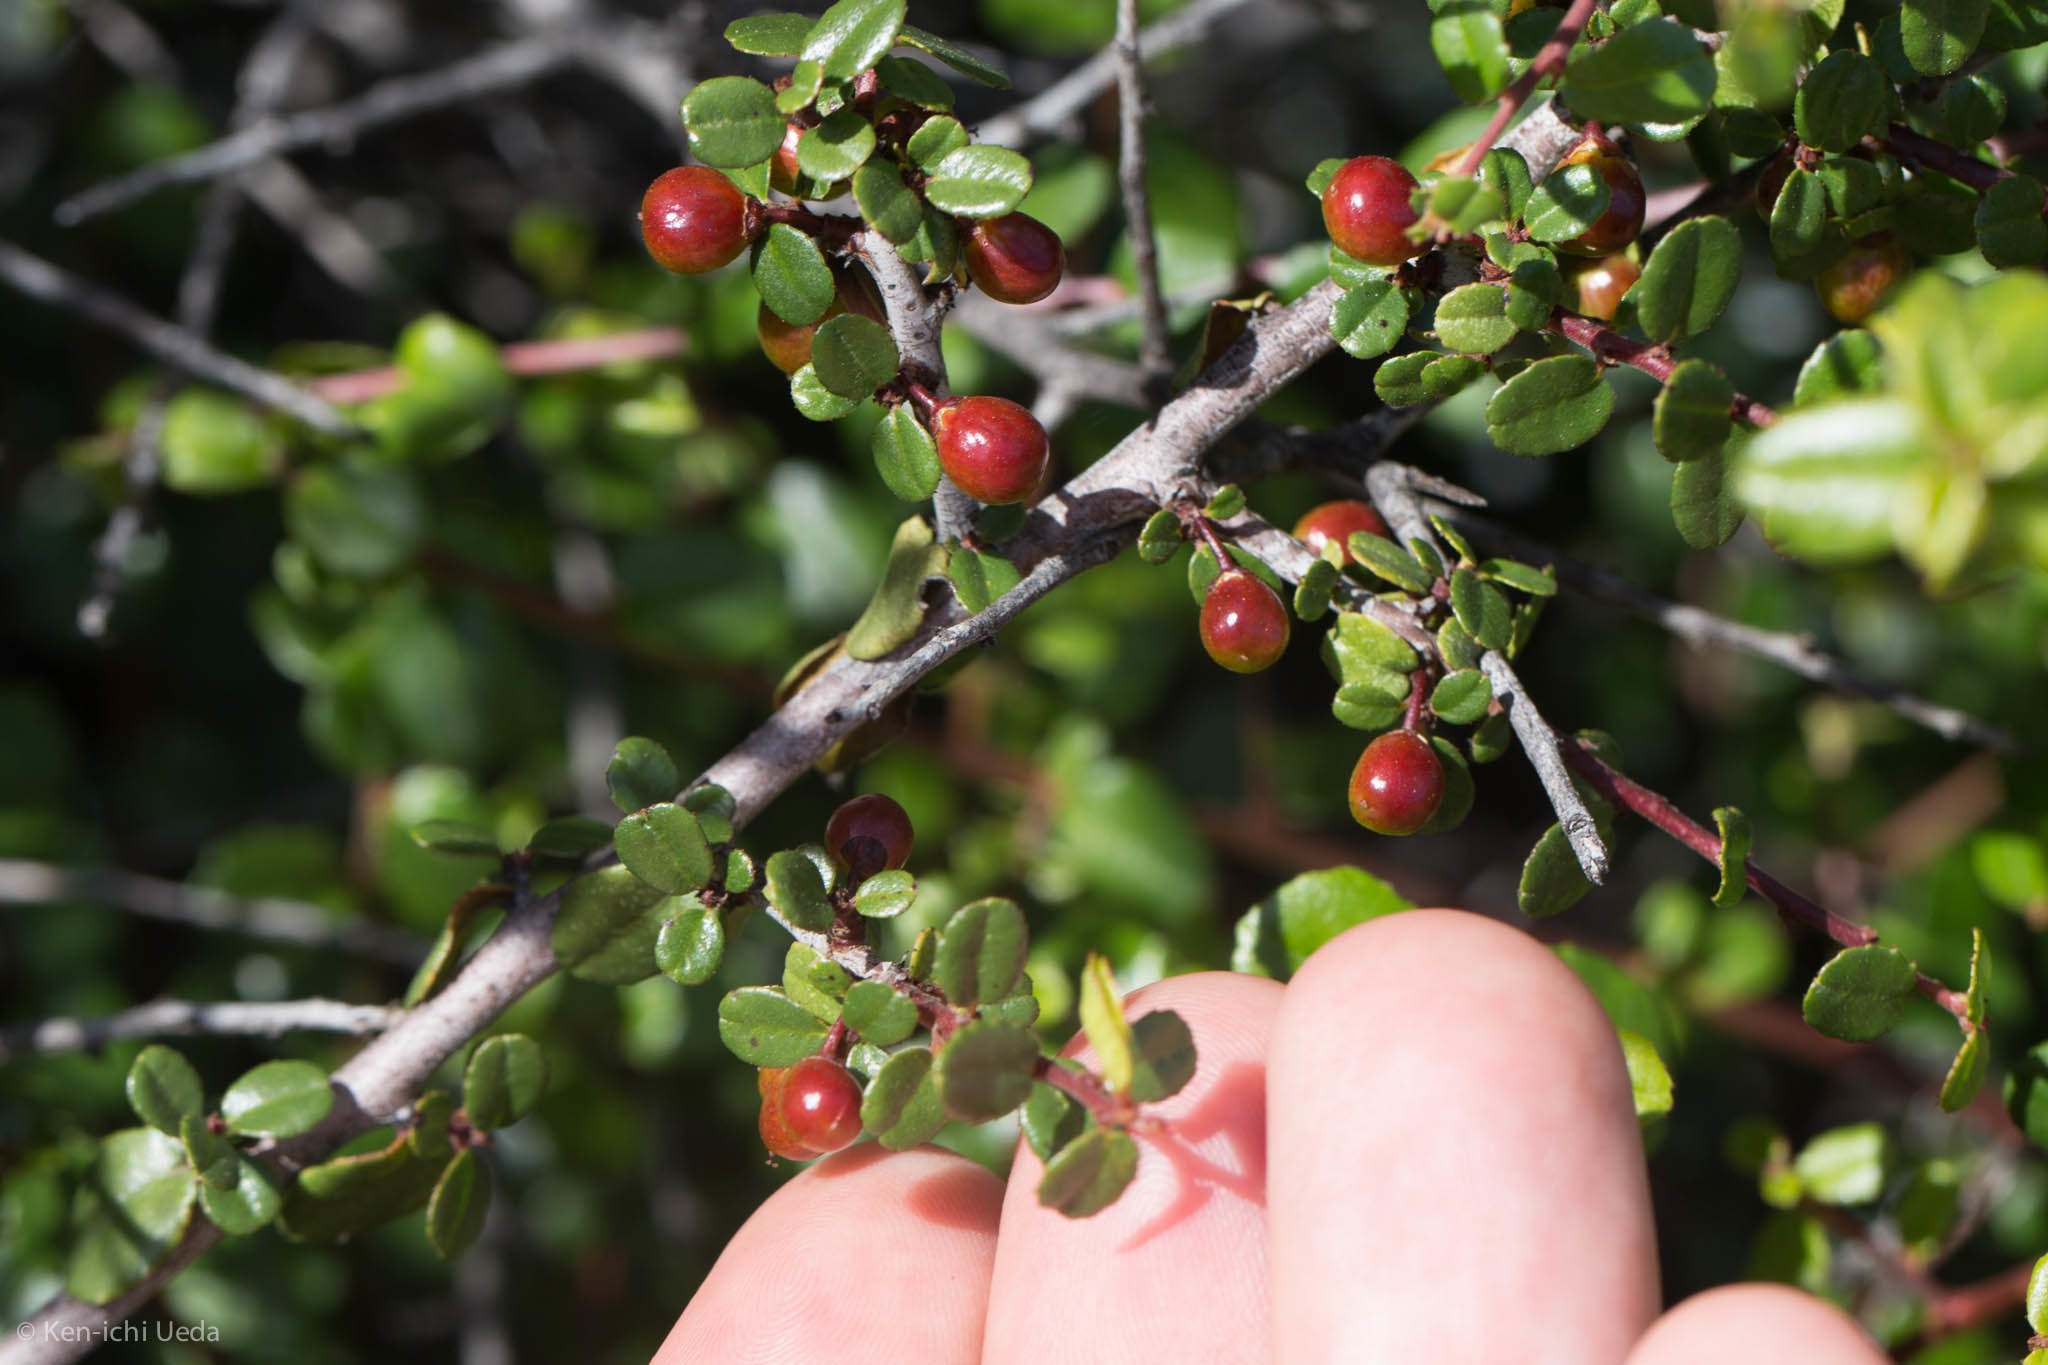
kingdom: Plantae
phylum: Tracheophyta
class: Magnoliopsida
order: Rosales
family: Rhamnaceae
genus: Endotropis
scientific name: Endotropis crocea
